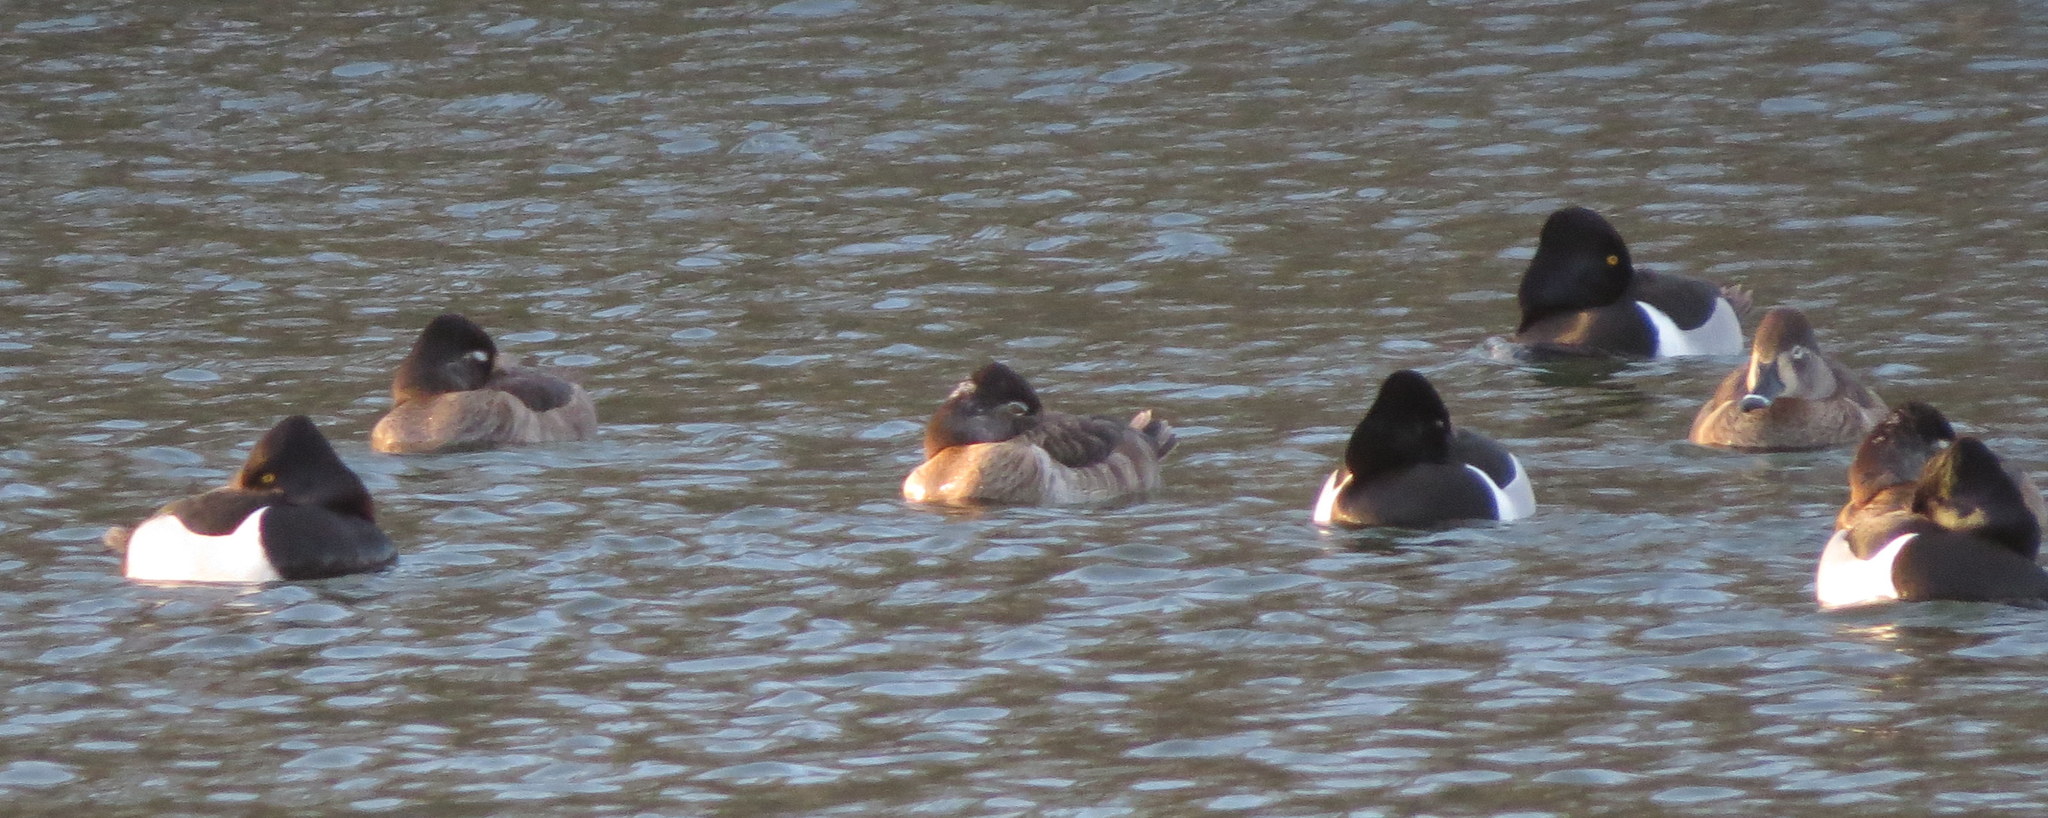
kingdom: Animalia
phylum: Chordata
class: Aves
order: Anseriformes
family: Anatidae
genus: Aythya
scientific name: Aythya collaris
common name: Ring-necked duck
